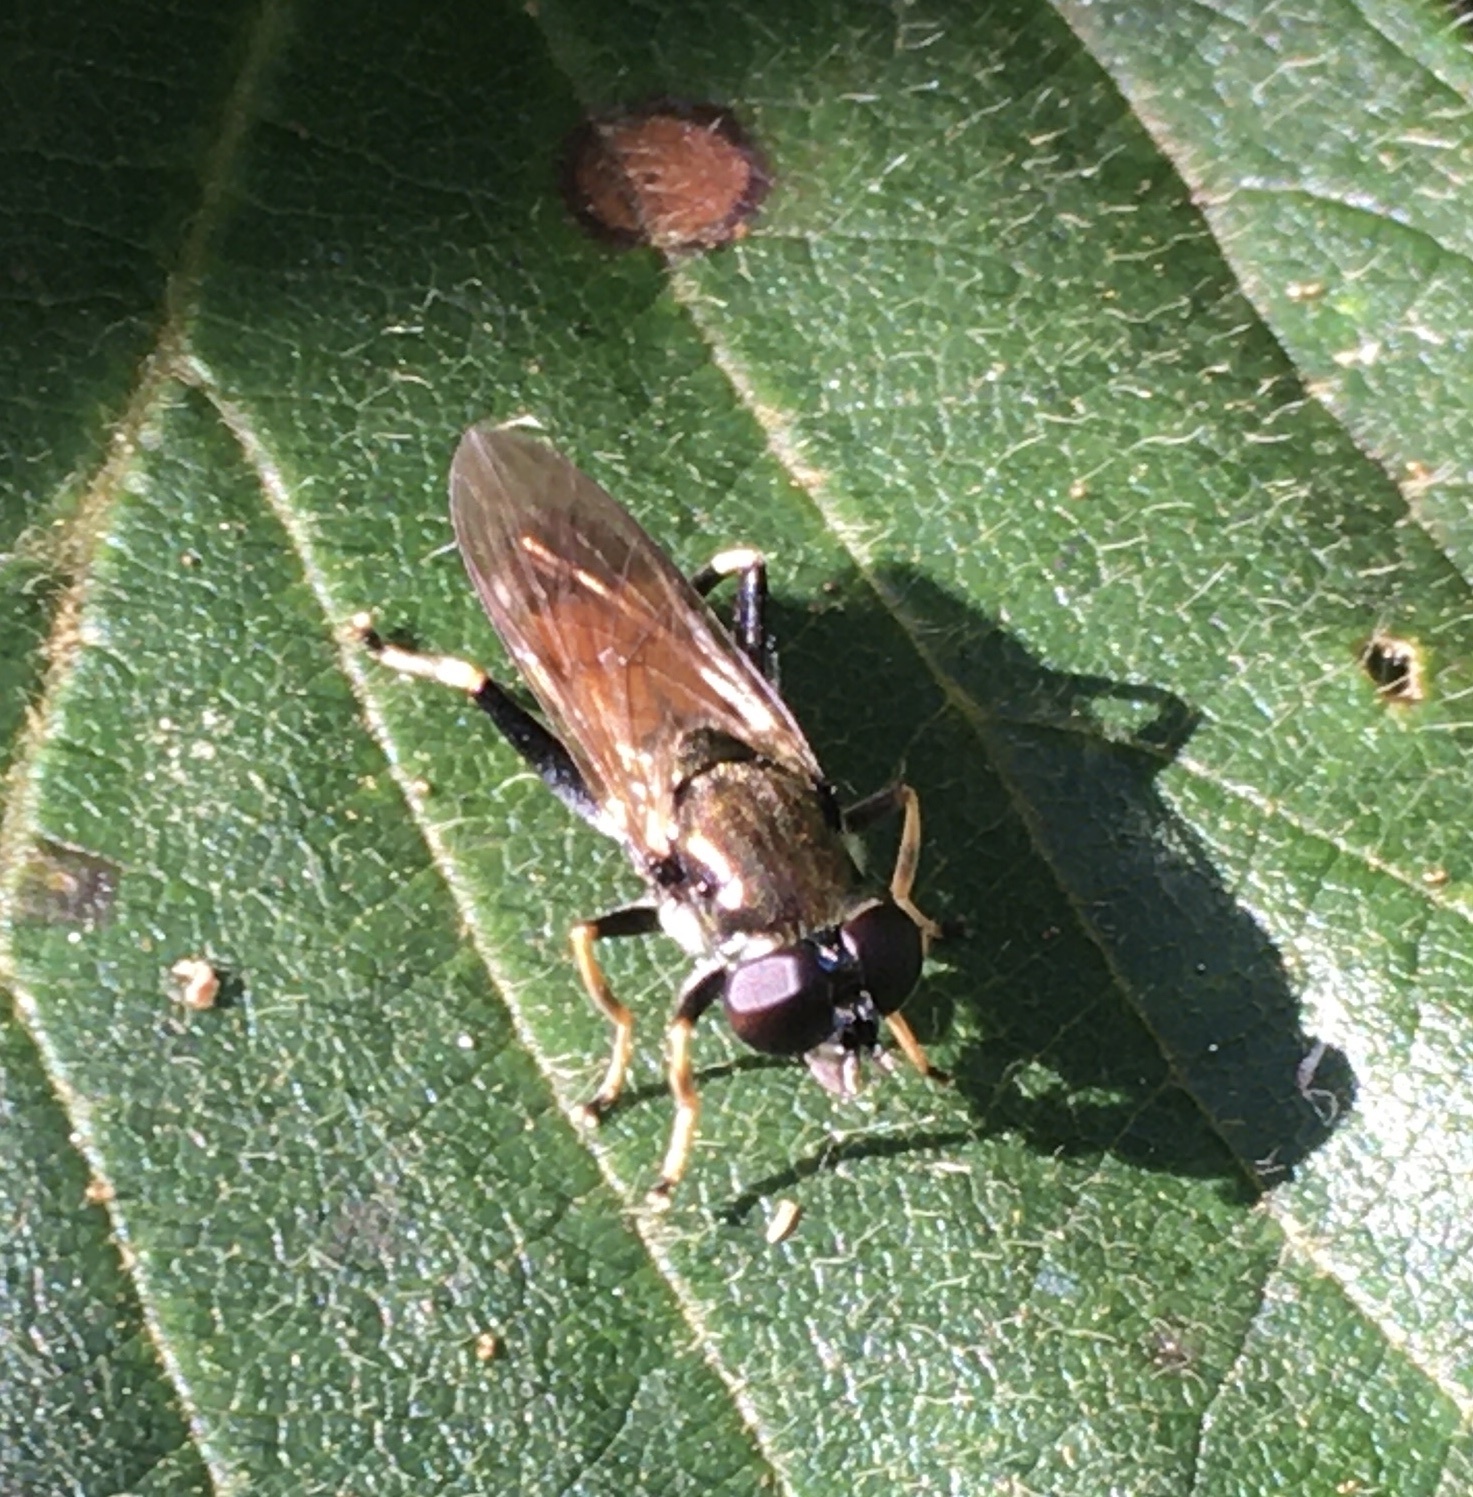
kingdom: Animalia
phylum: Arthropoda
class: Insecta
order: Diptera
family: Syrphidae
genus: Xylota
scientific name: Xylota segnis
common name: Brown-toed forest fly
